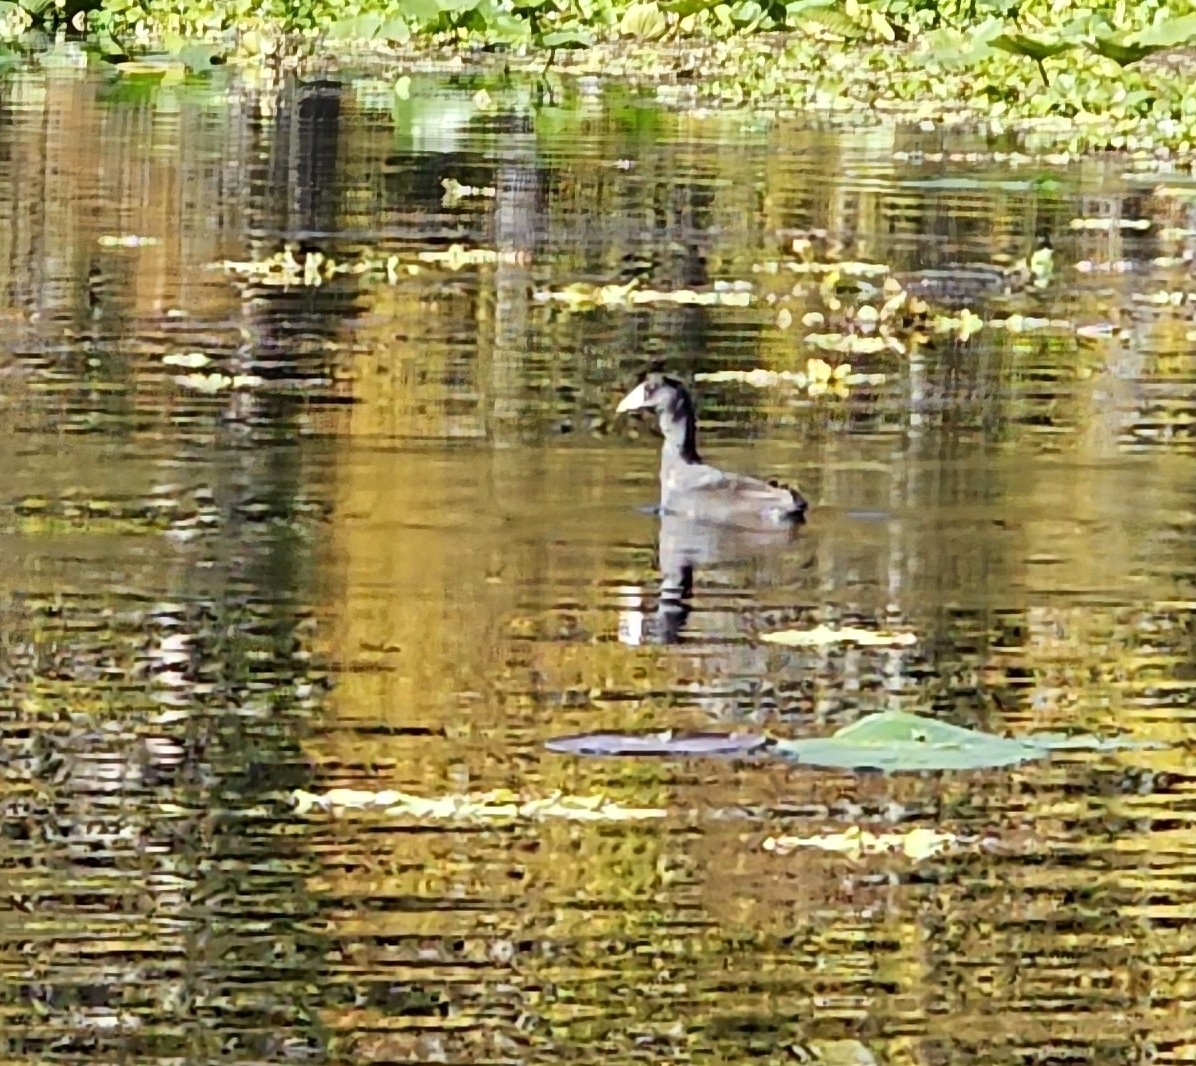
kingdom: Animalia
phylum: Chordata
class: Aves
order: Gruiformes
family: Rallidae
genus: Fulica
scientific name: Fulica americana
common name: American coot
